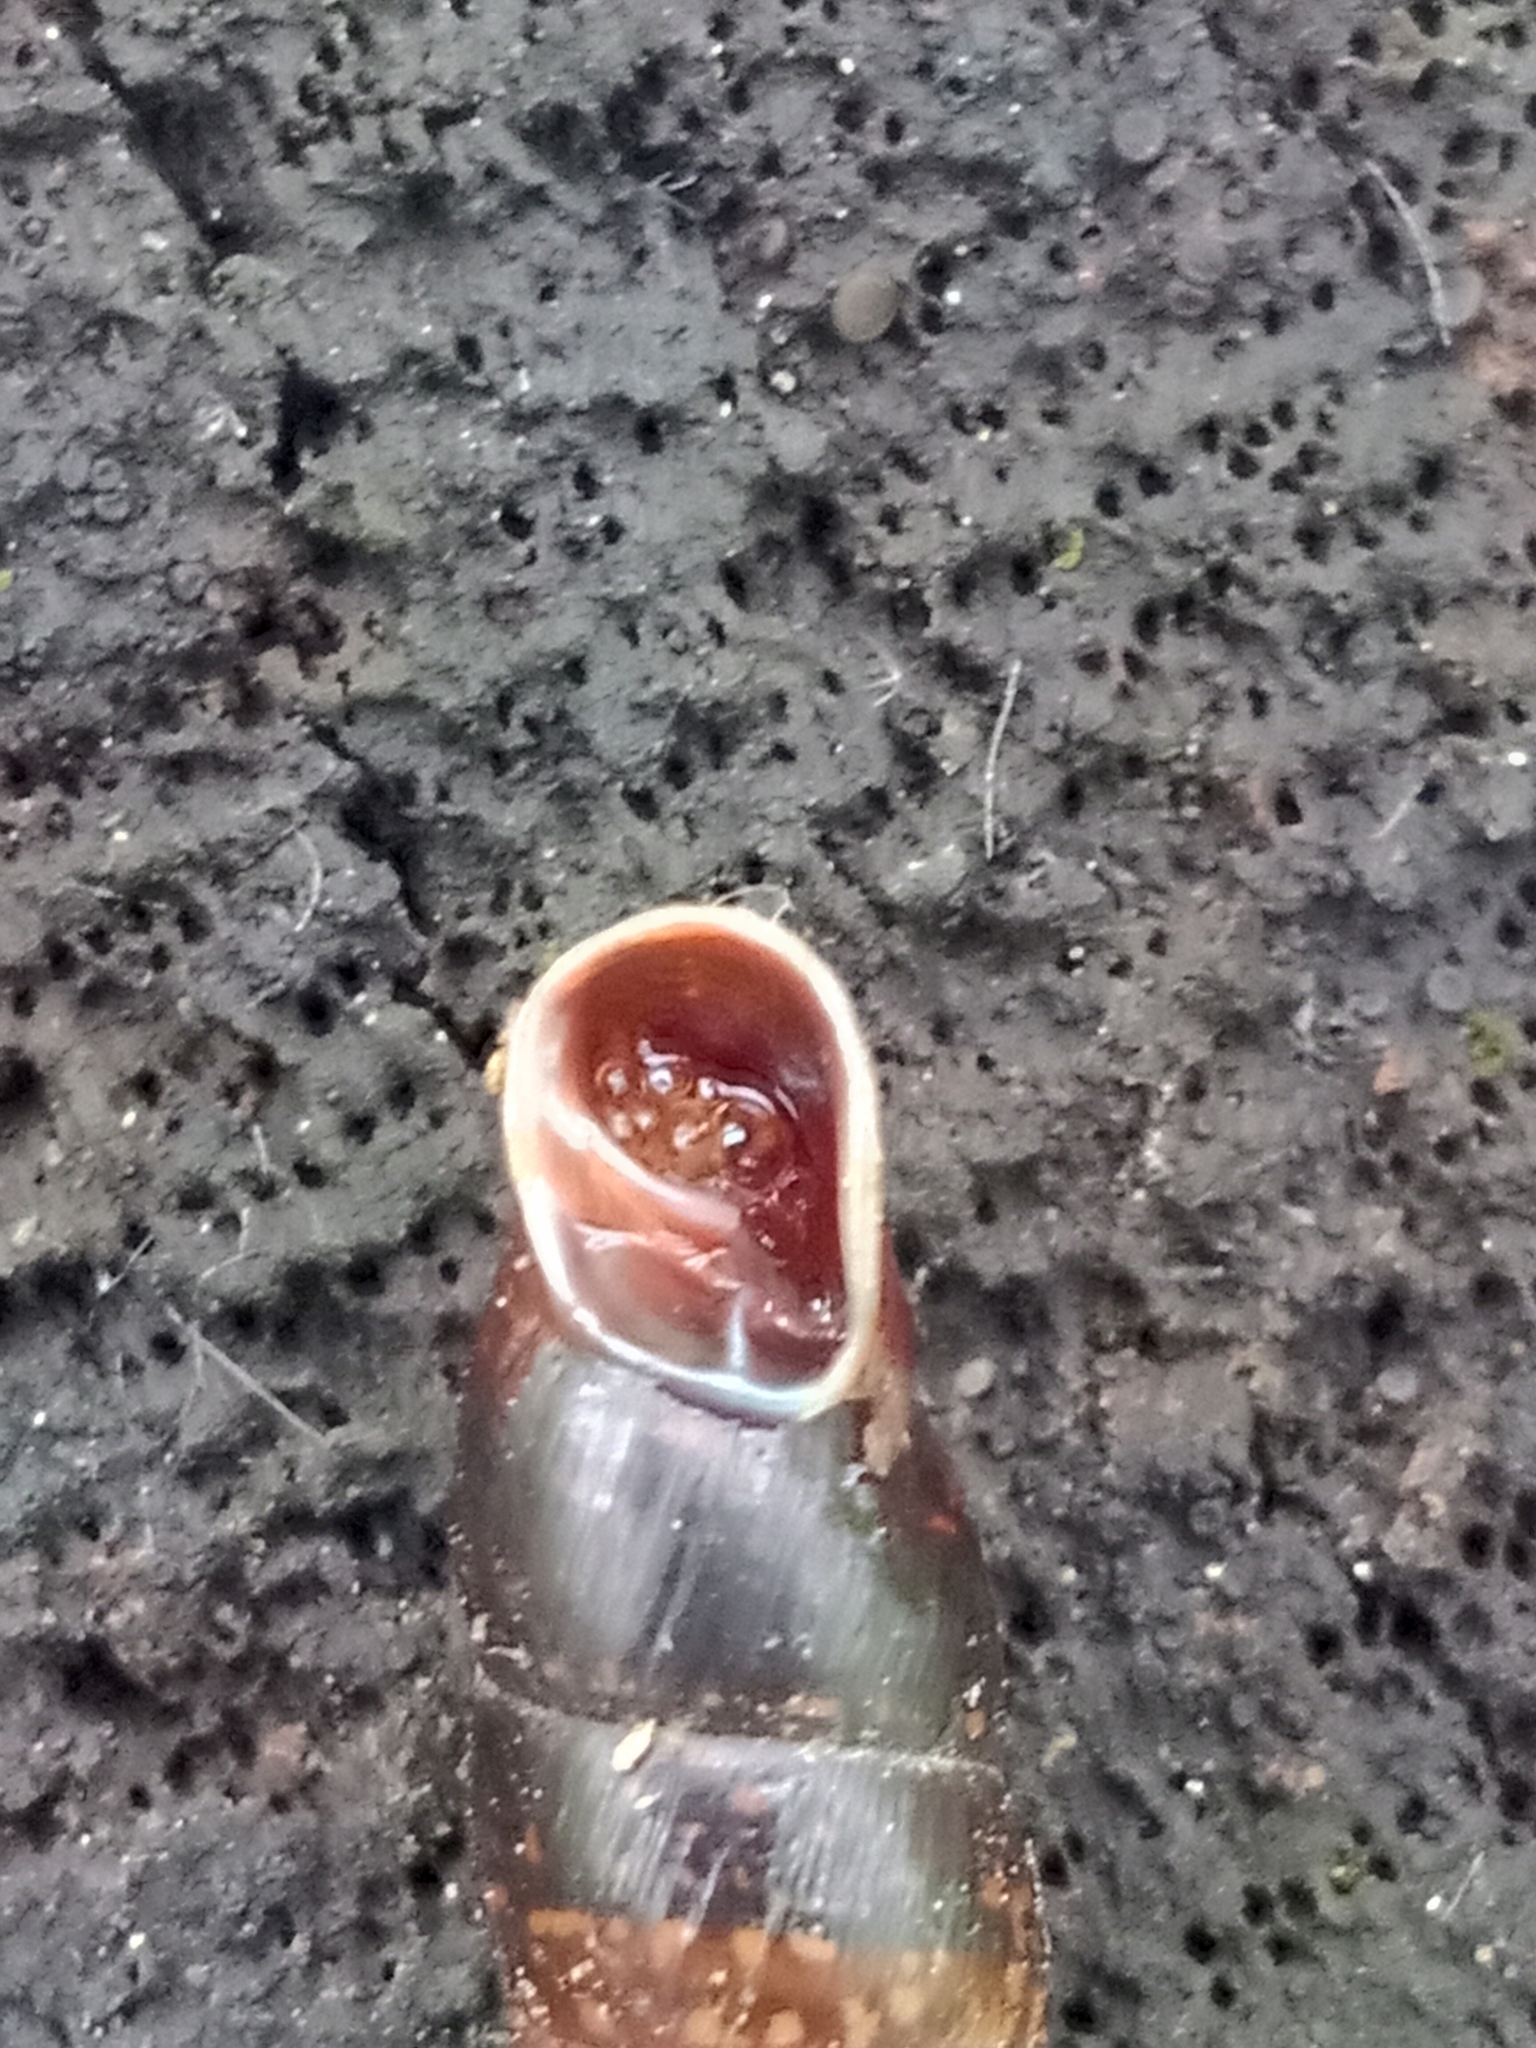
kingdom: Animalia
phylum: Mollusca
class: Gastropoda
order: Stylommatophora
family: Clausiliidae
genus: Cochlodina
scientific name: Cochlodina laminata
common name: Plaited door snail
